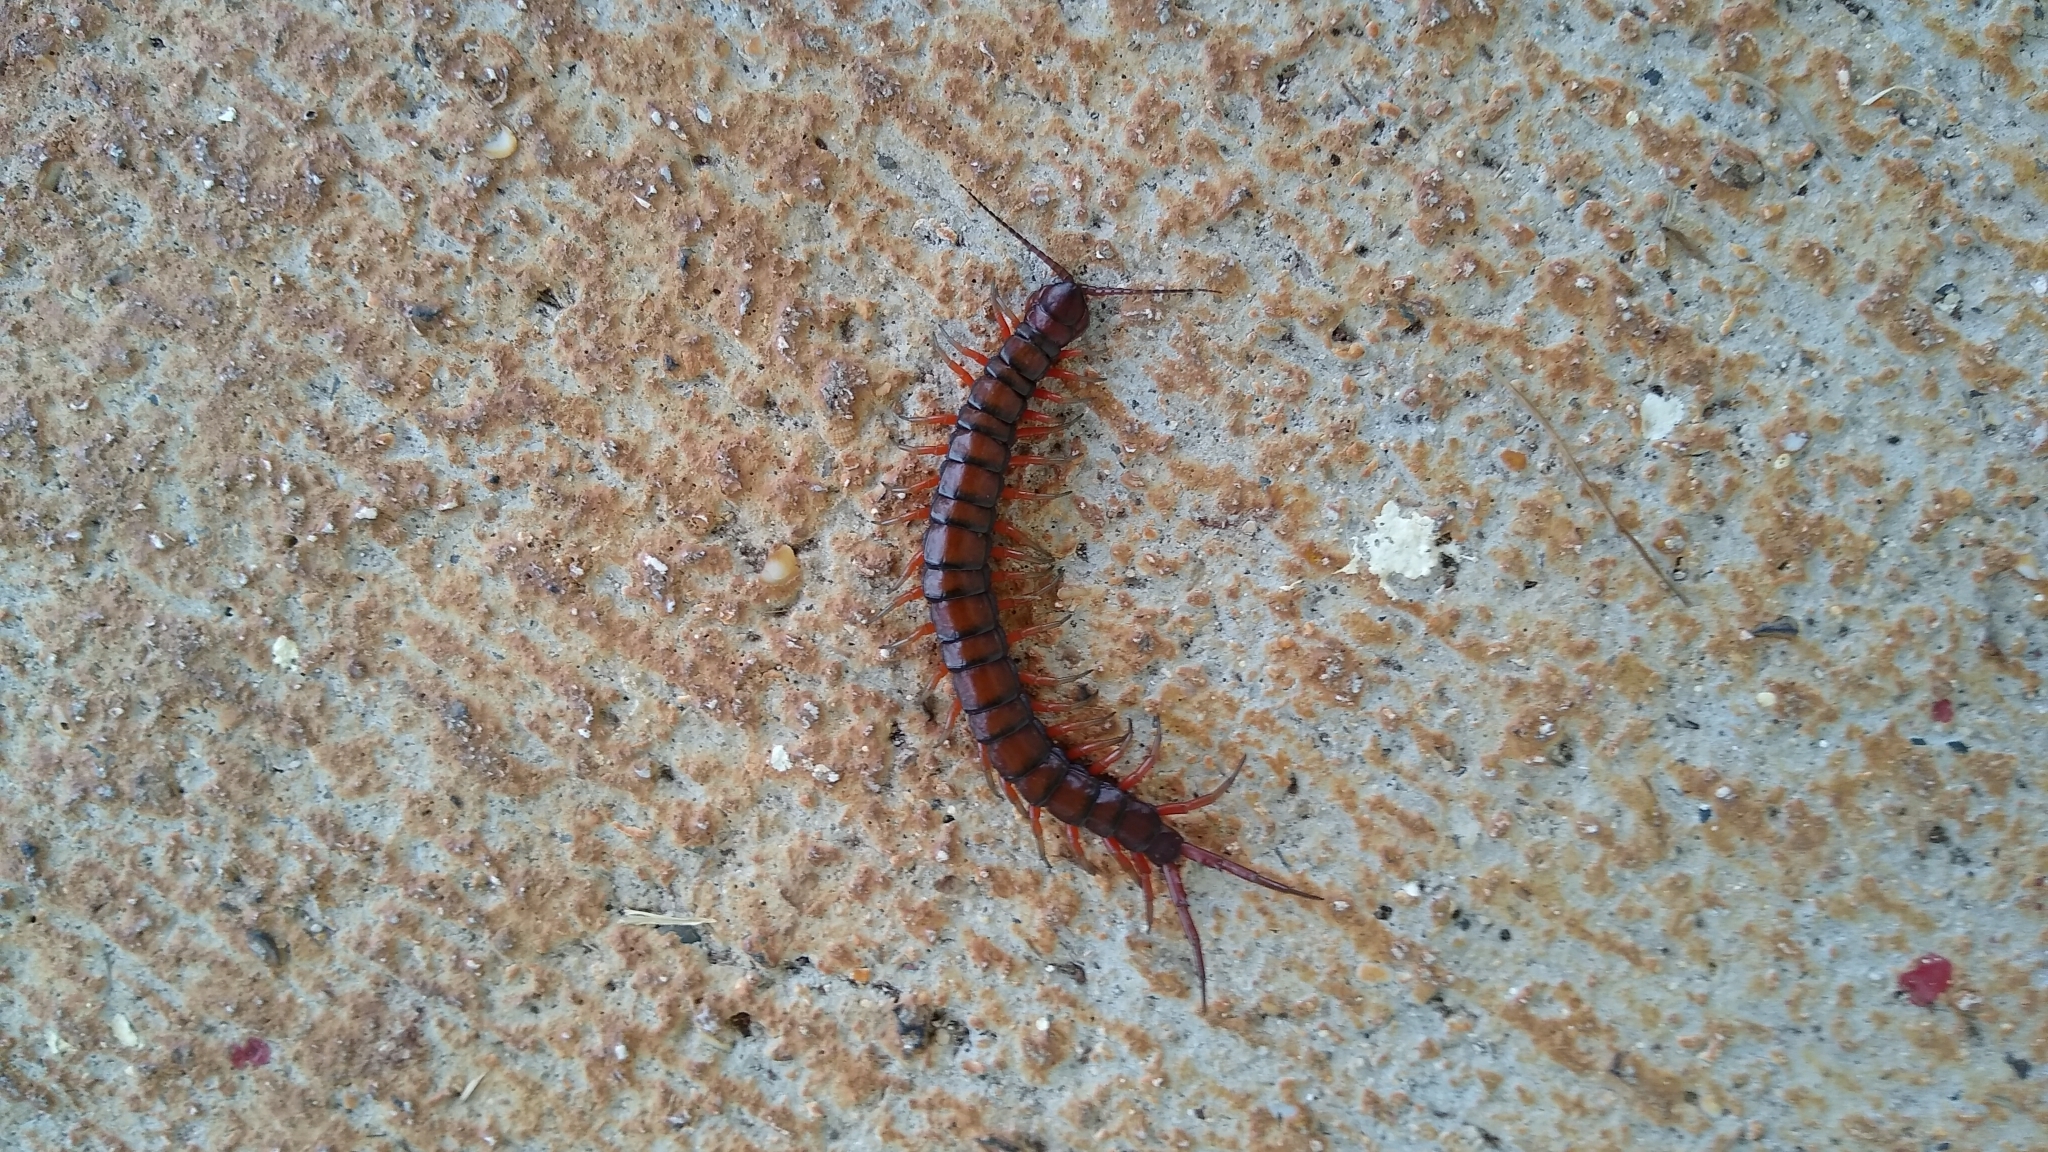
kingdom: Animalia
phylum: Arthropoda
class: Chilopoda
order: Scolopendromorpha
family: Scolopendridae
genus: Scolopendra
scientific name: Scolopendra subspinipes
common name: Centipede
